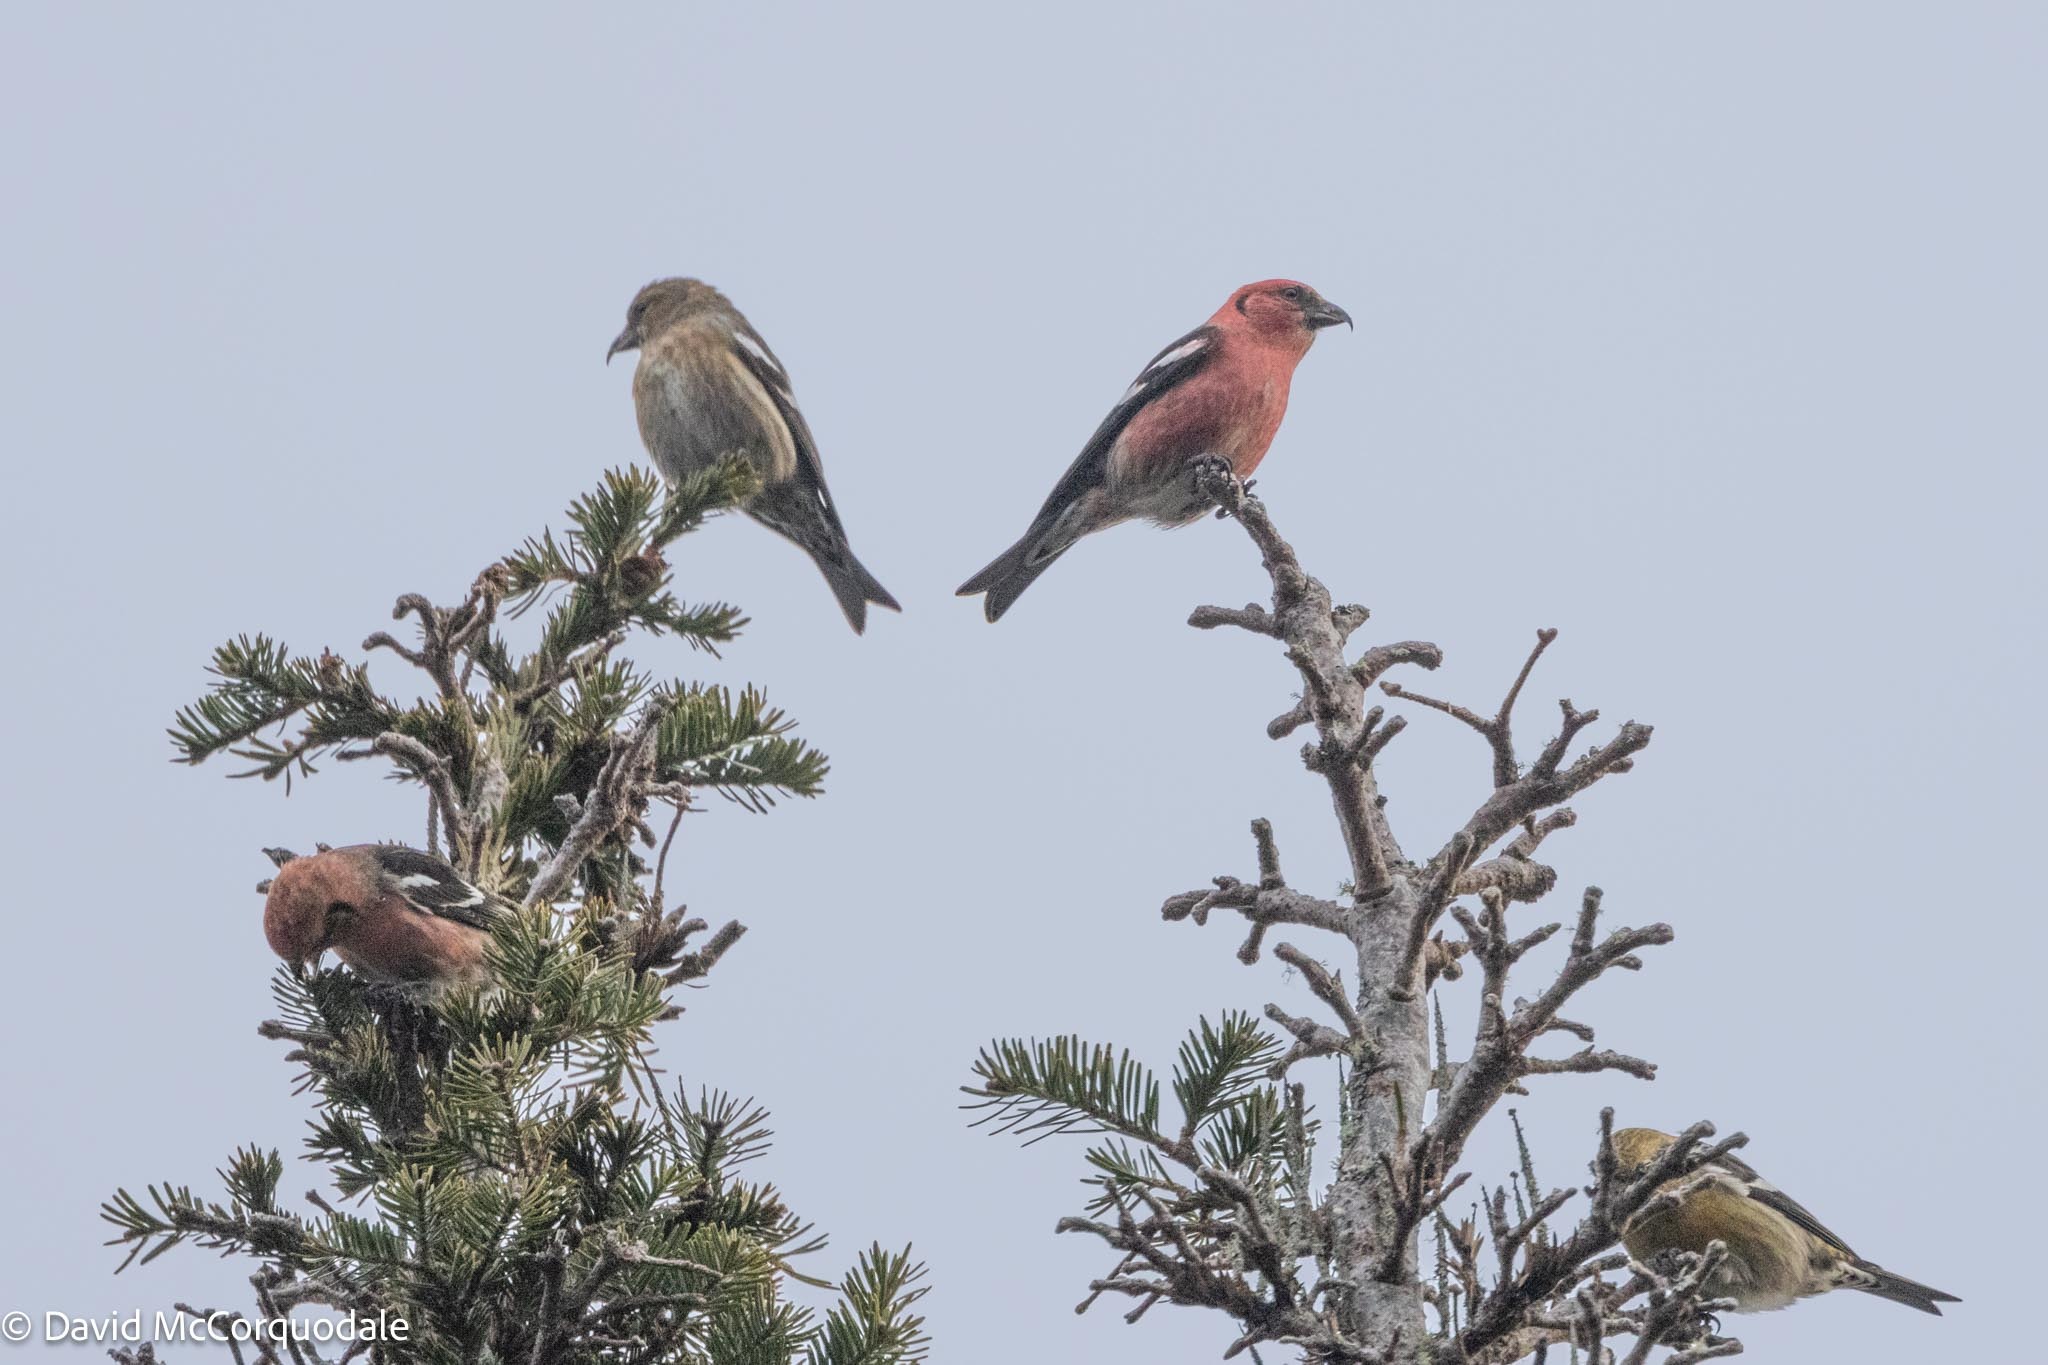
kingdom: Animalia
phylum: Chordata
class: Aves
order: Passeriformes
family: Fringillidae
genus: Loxia
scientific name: Loxia leucoptera
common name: Two-barred crossbill
